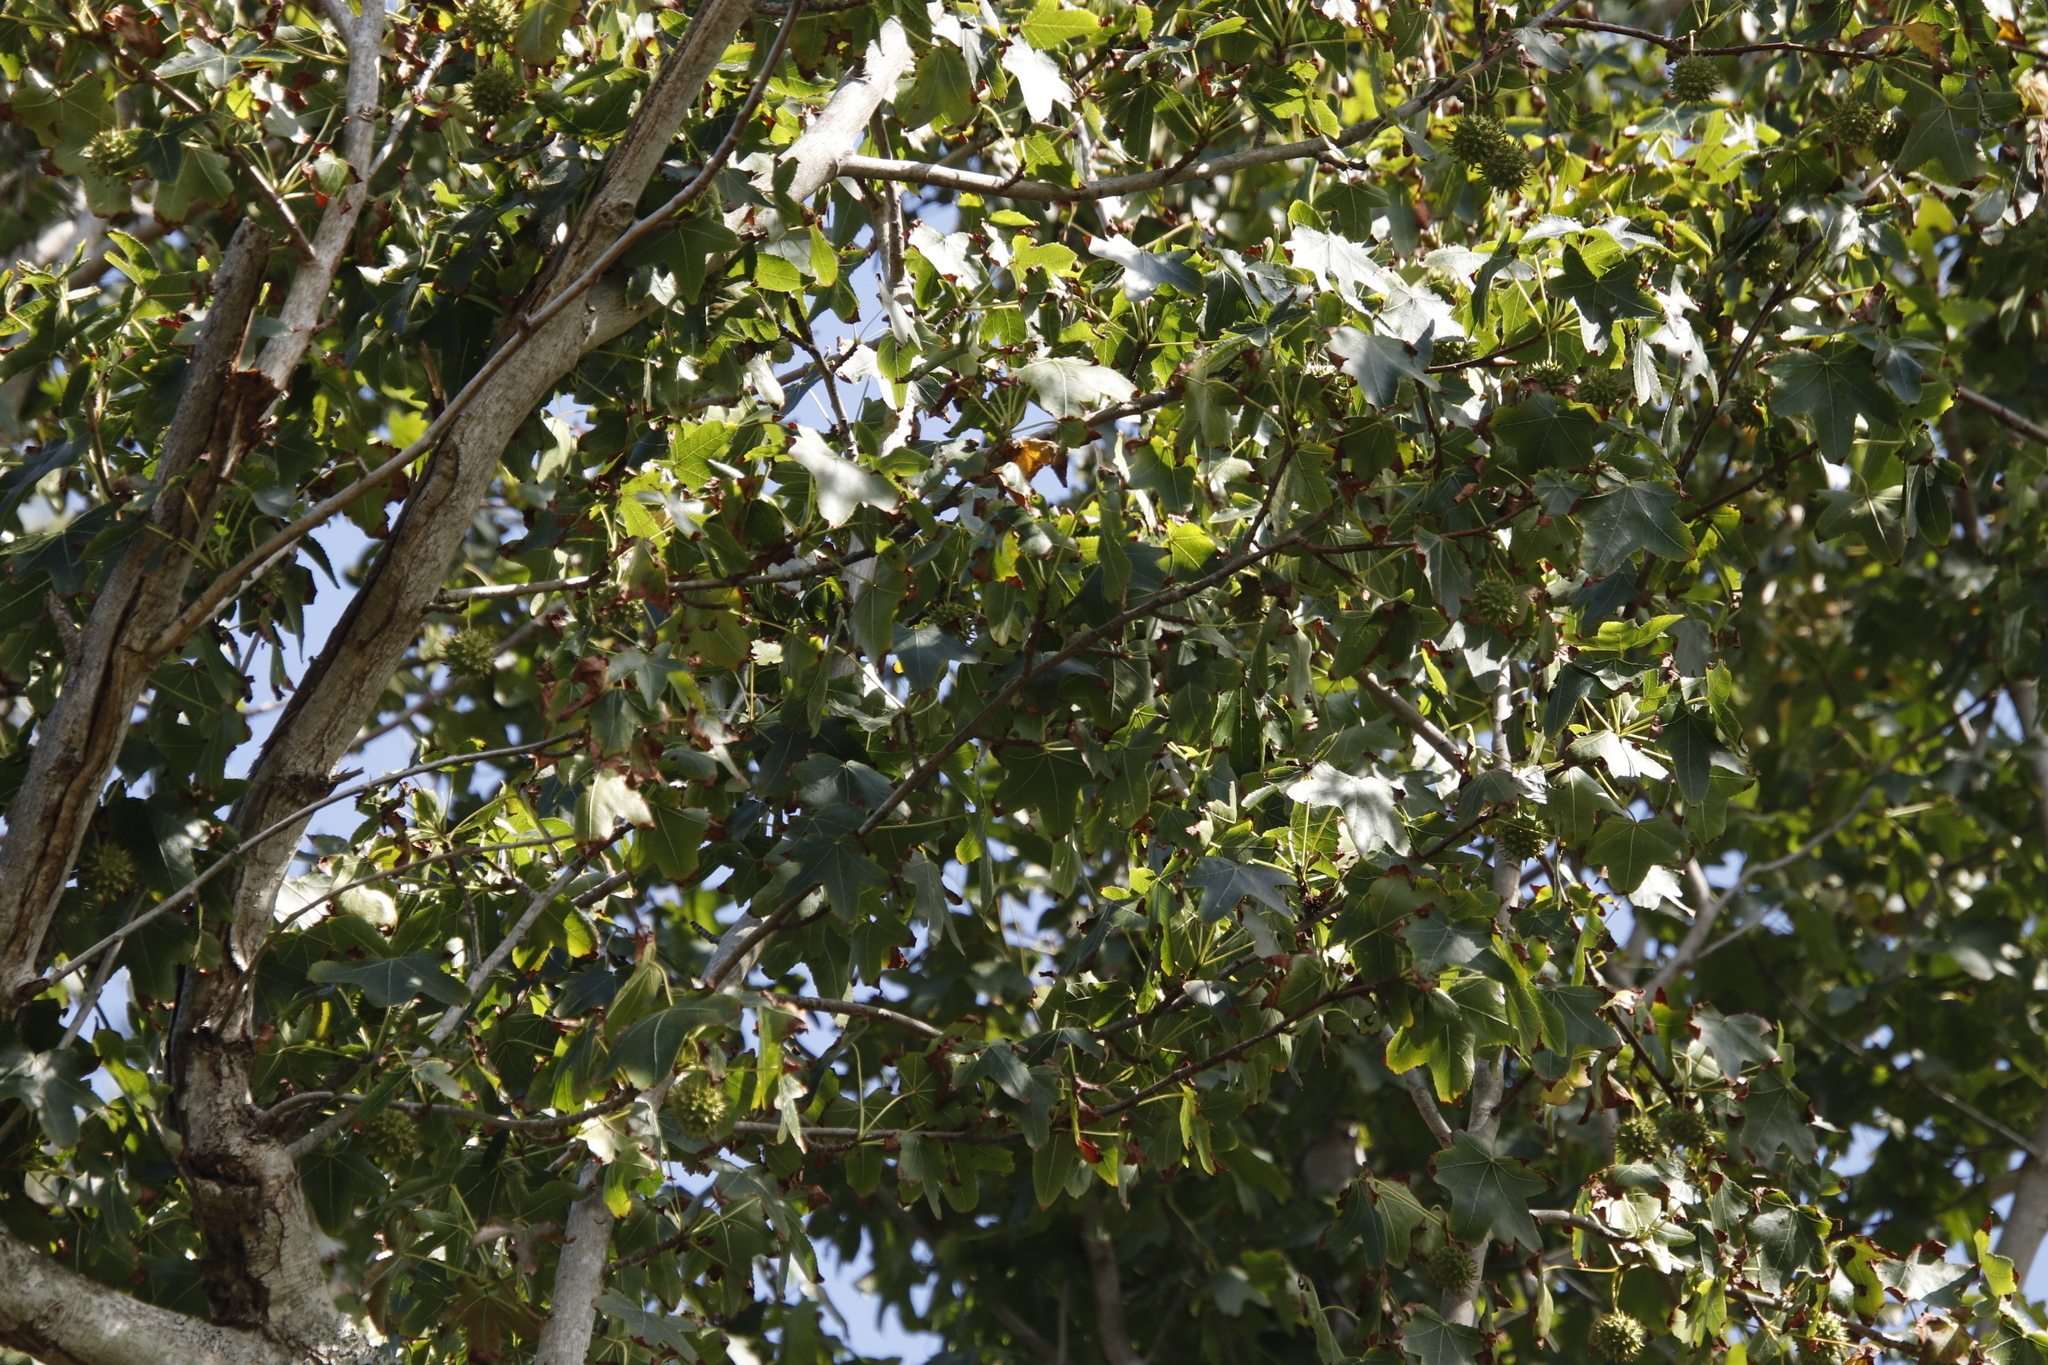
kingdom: Plantae
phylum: Tracheophyta
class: Magnoliopsida
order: Saxifragales
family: Altingiaceae
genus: Liquidambar
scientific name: Liquidambar styraciflua
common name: Sweet gum
